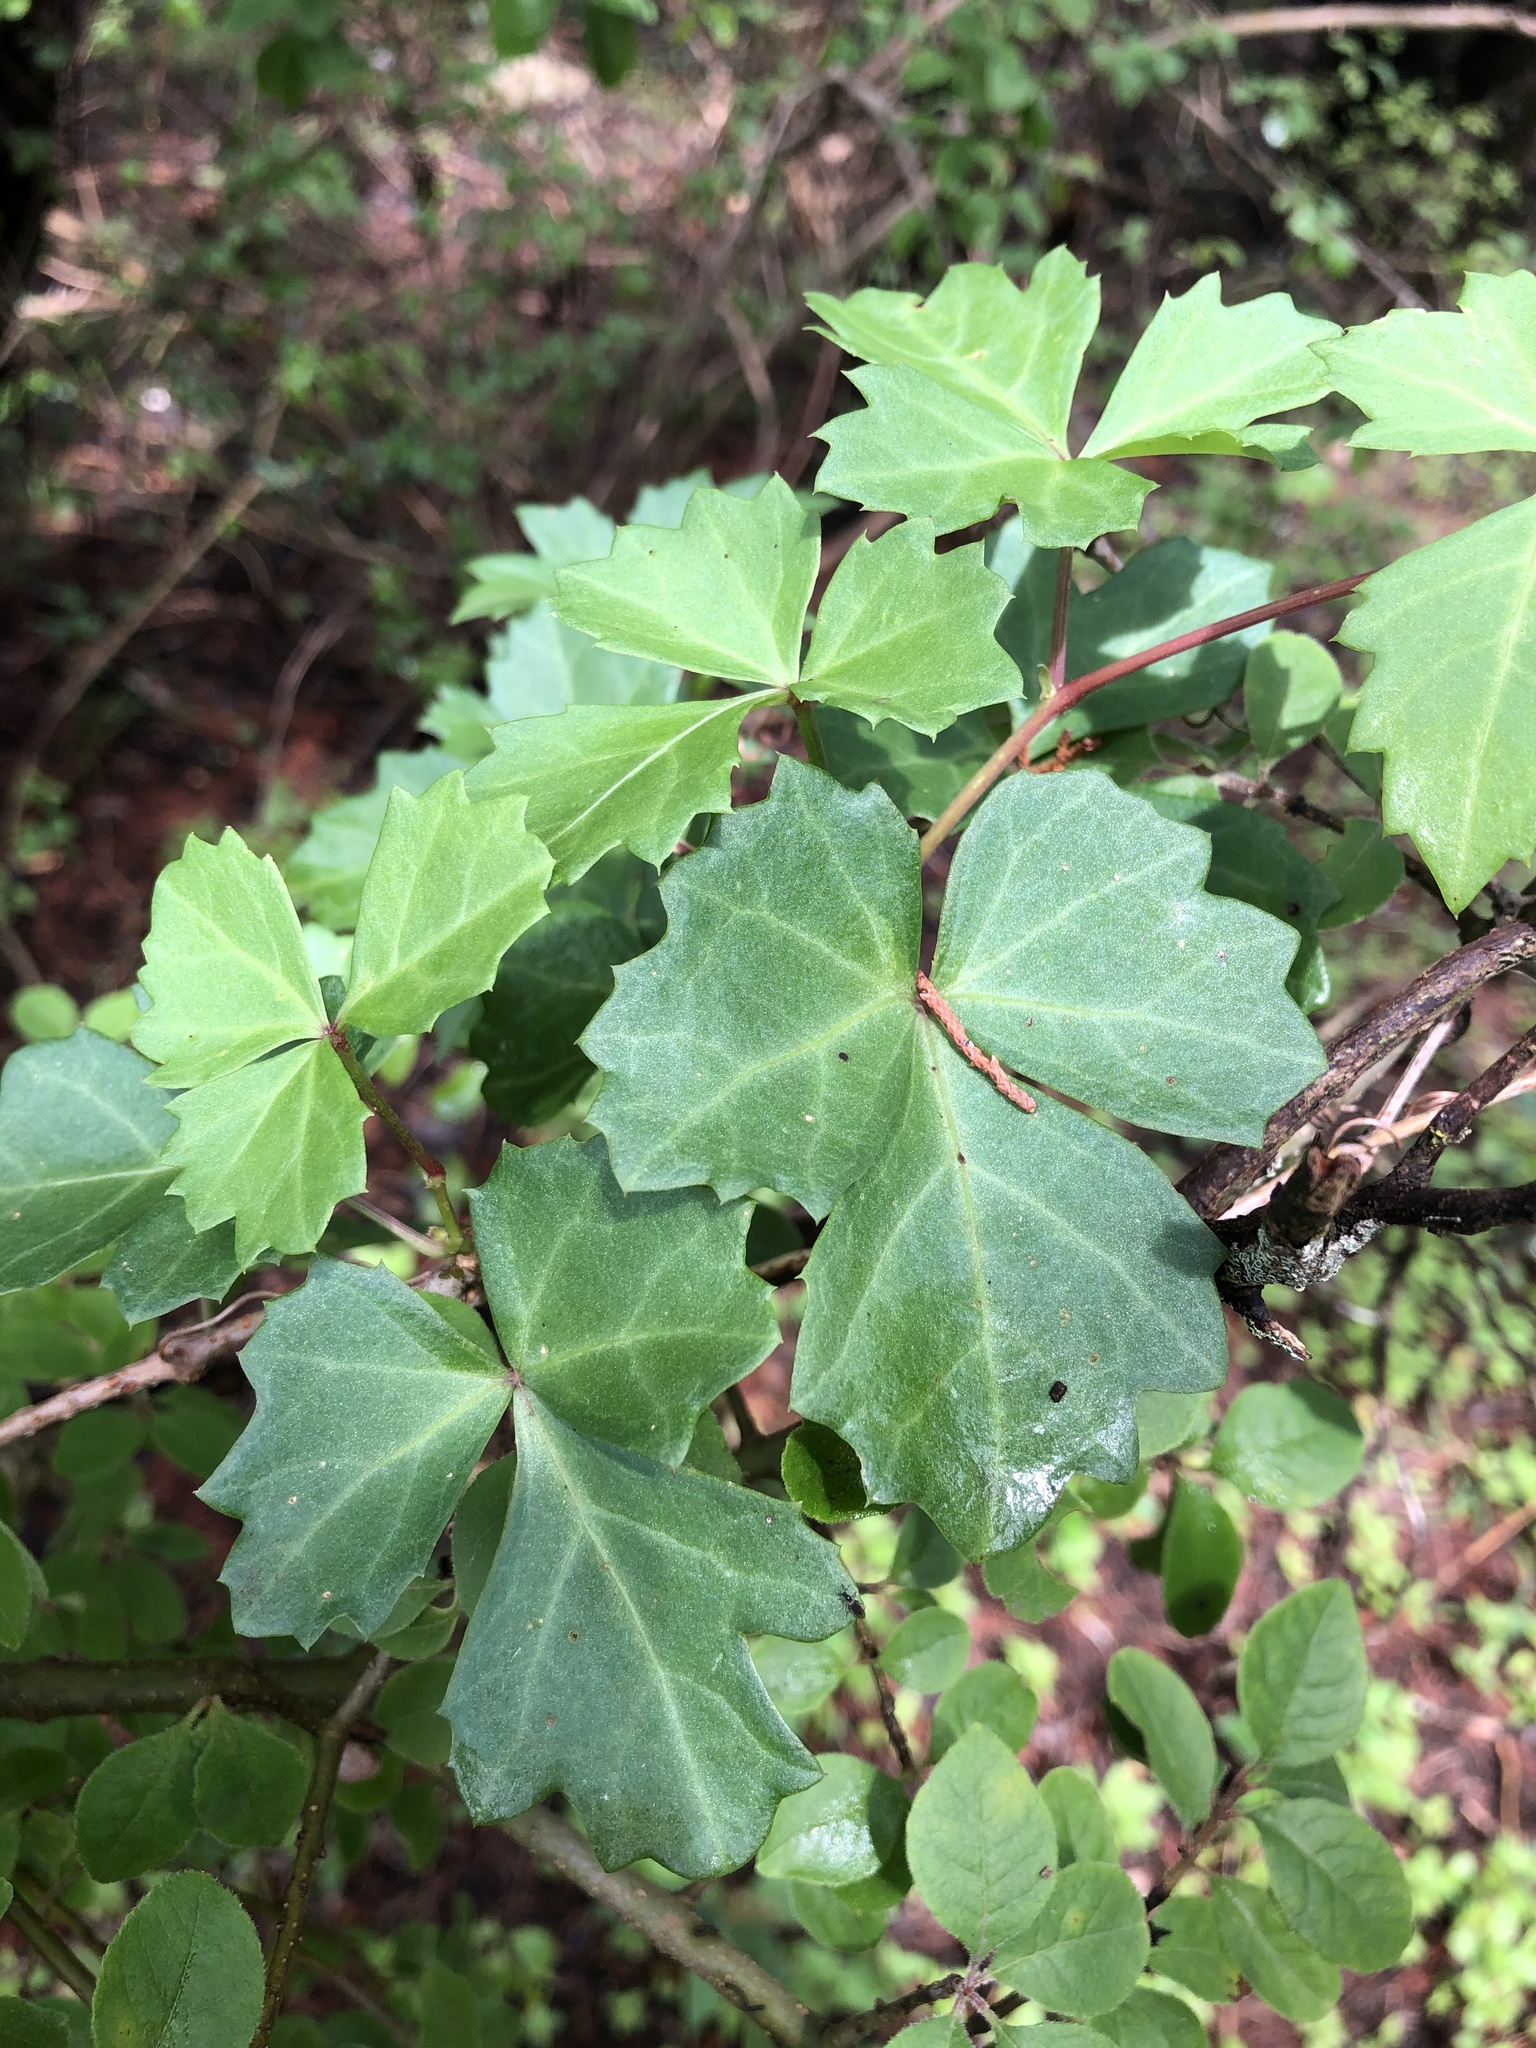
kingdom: Plantae
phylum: Tracheophyta
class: Magnoliopsida
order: Vitales
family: Vitaceae
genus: Cissus
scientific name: Cissus trifoliata
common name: Vine-sorrel
